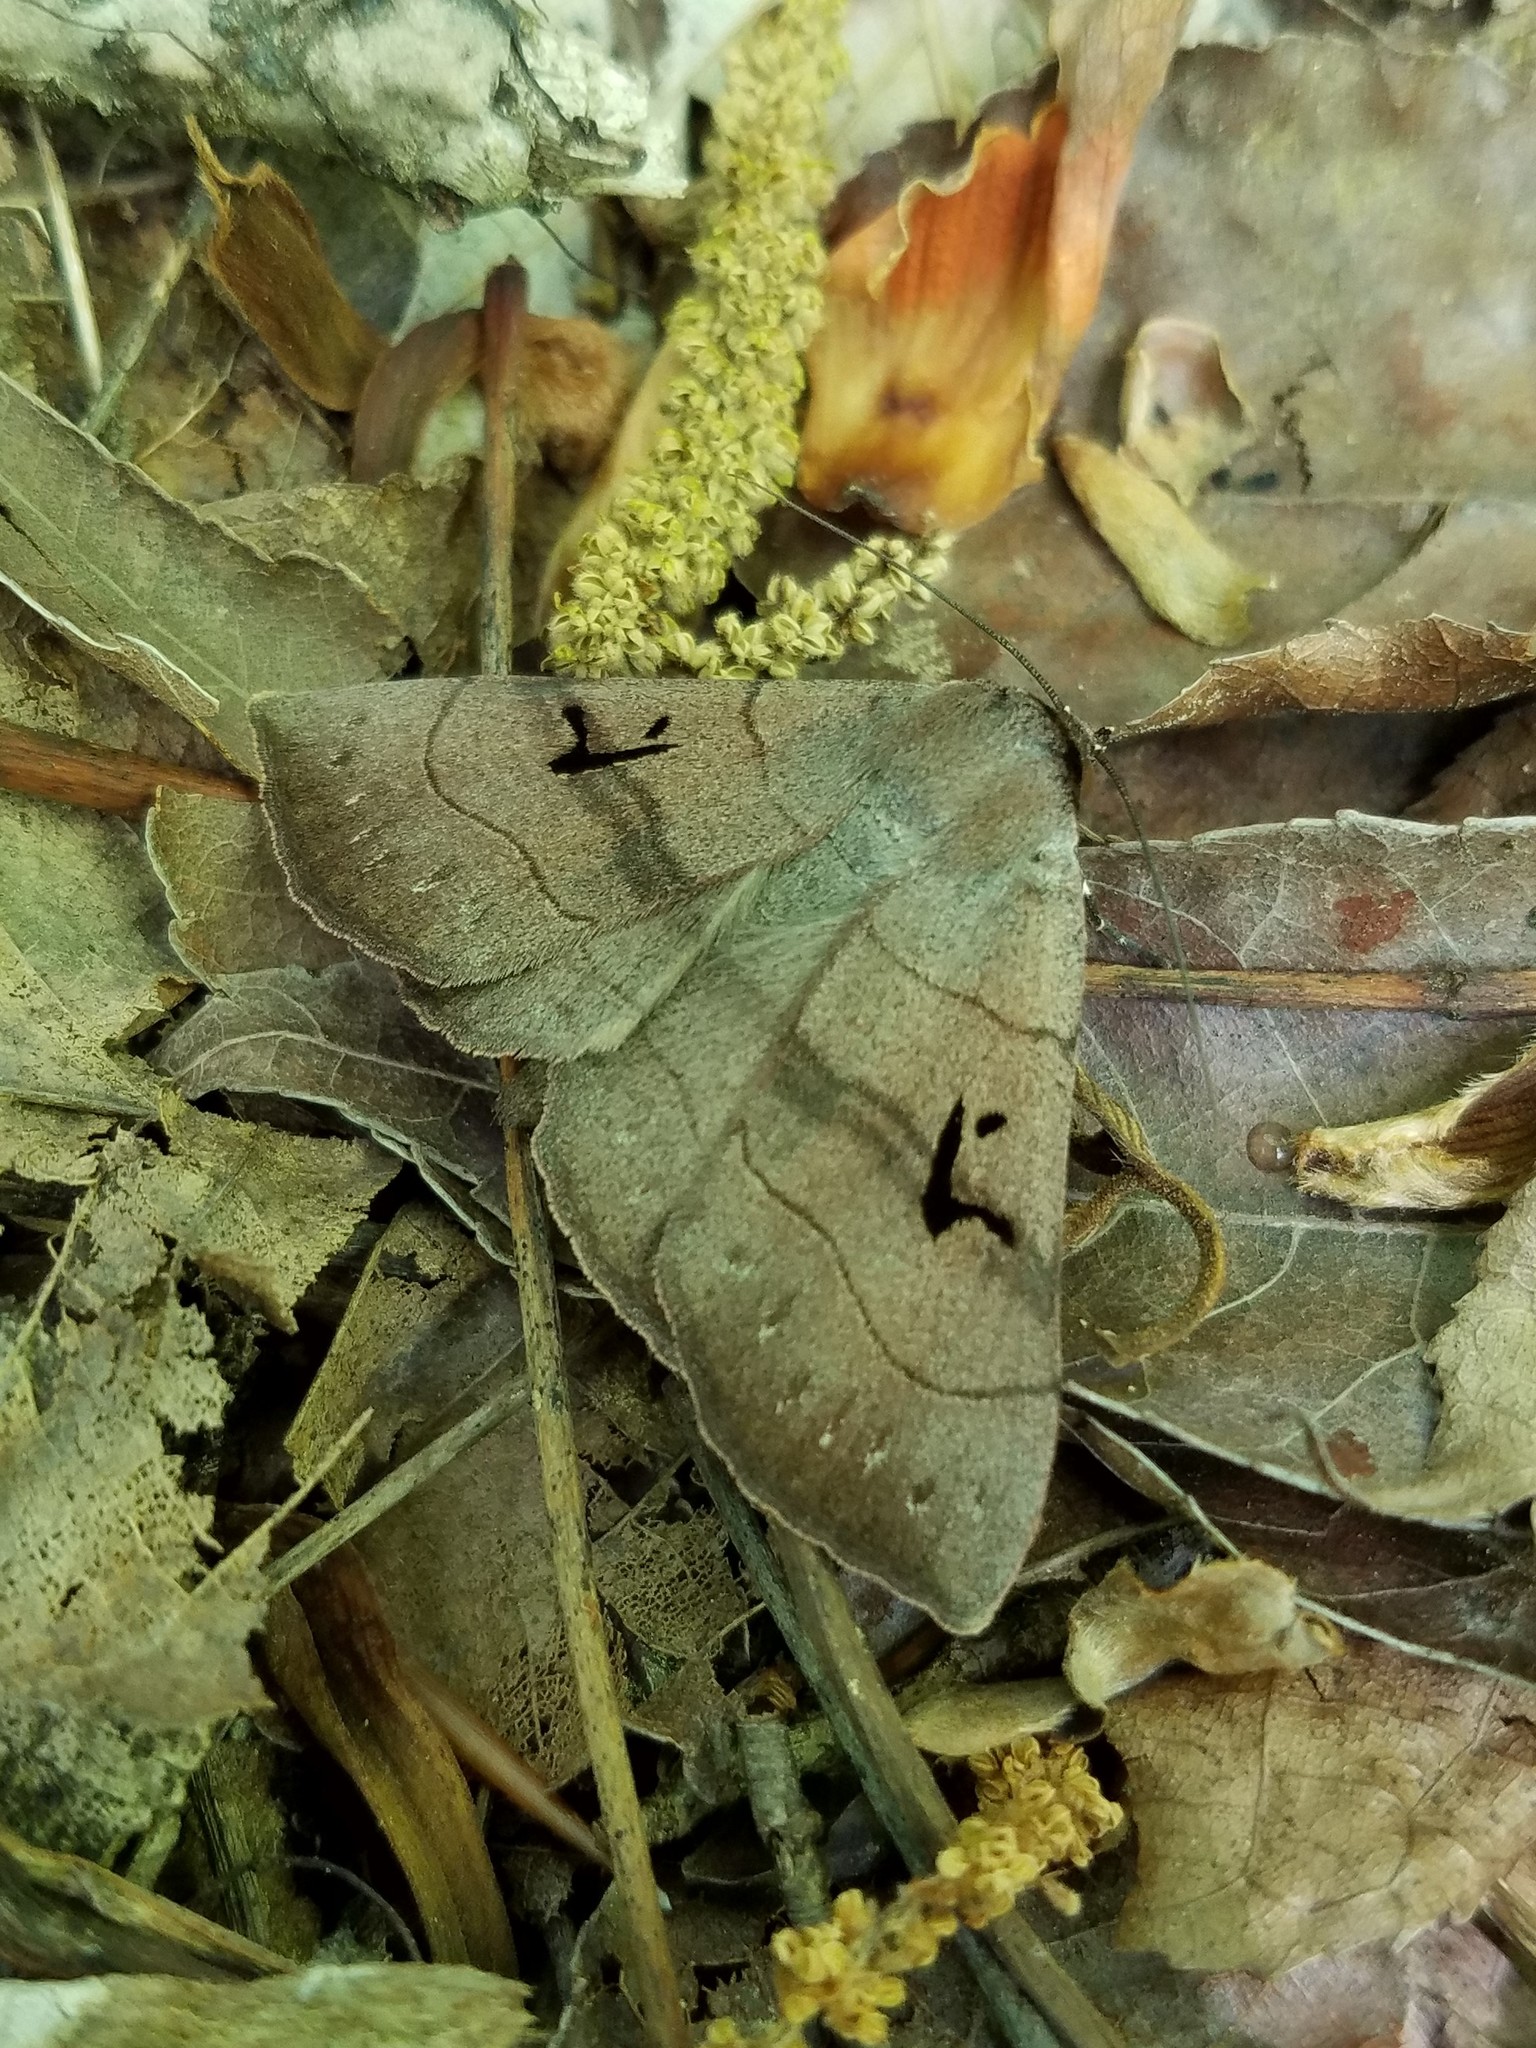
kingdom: Animalia
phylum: Arthropoda
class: Insecta
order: Lepidoptera
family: Erebidae
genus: Panopoda
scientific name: Panopoda carneicosta
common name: Brown panopoda moth
